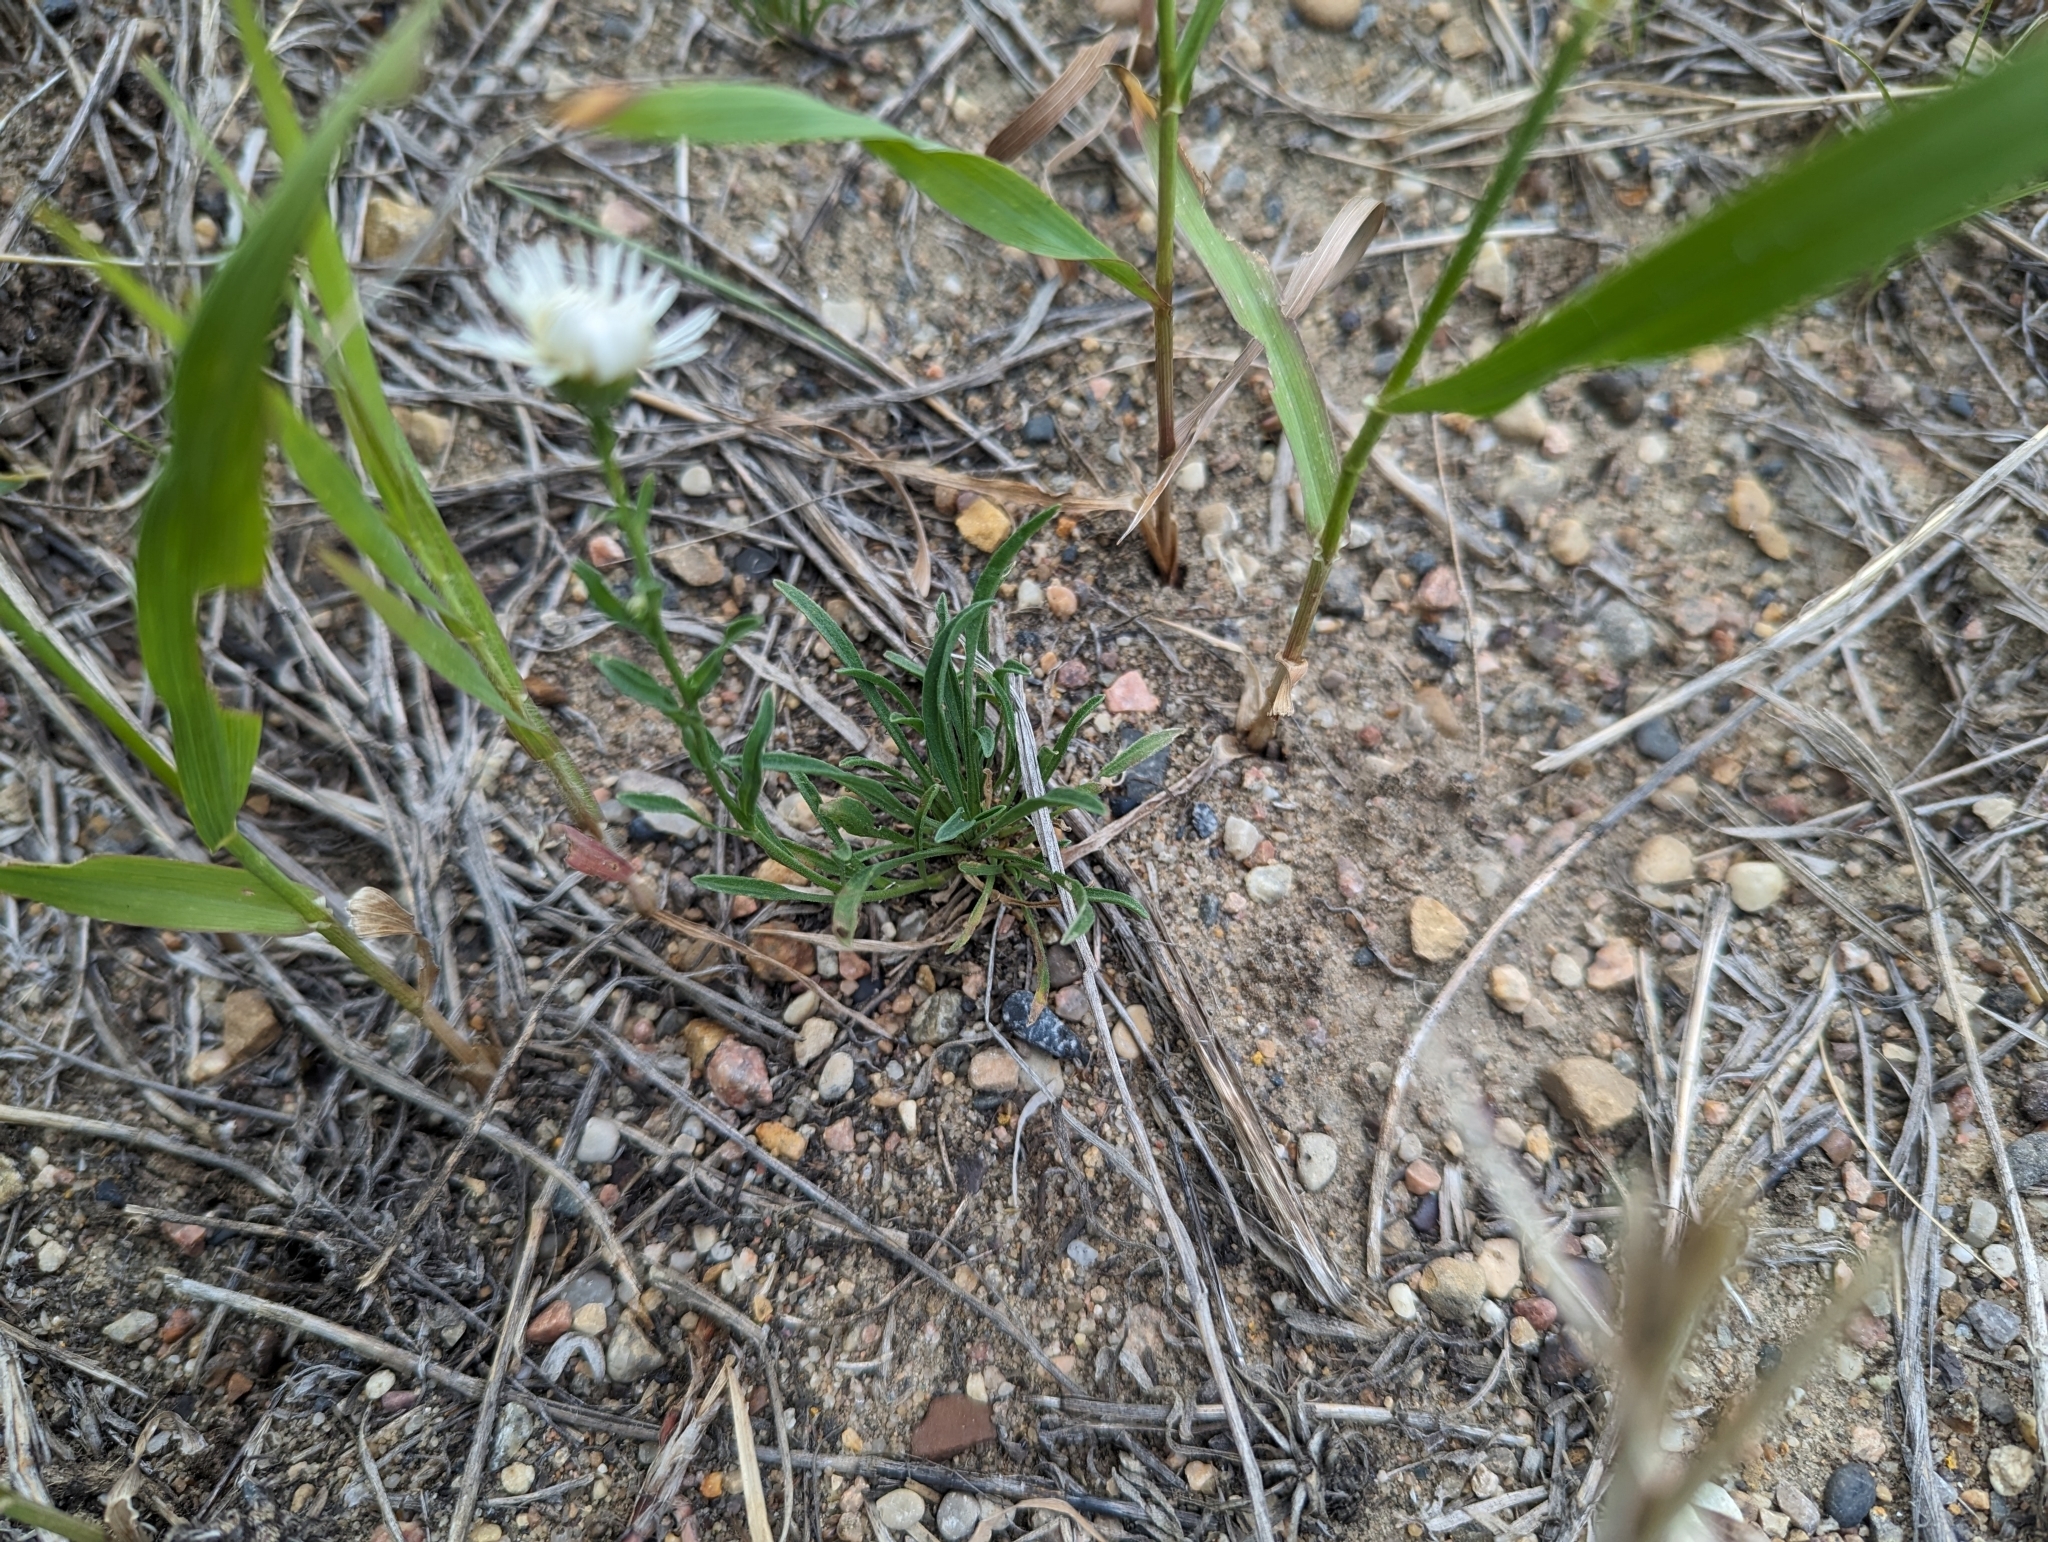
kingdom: Plantae
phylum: Tracheophyta
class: Magnoliopsida
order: Asterales
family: Asteraceae
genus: Erigeron
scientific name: Erigeron caespitosus
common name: Tufted fleabane
